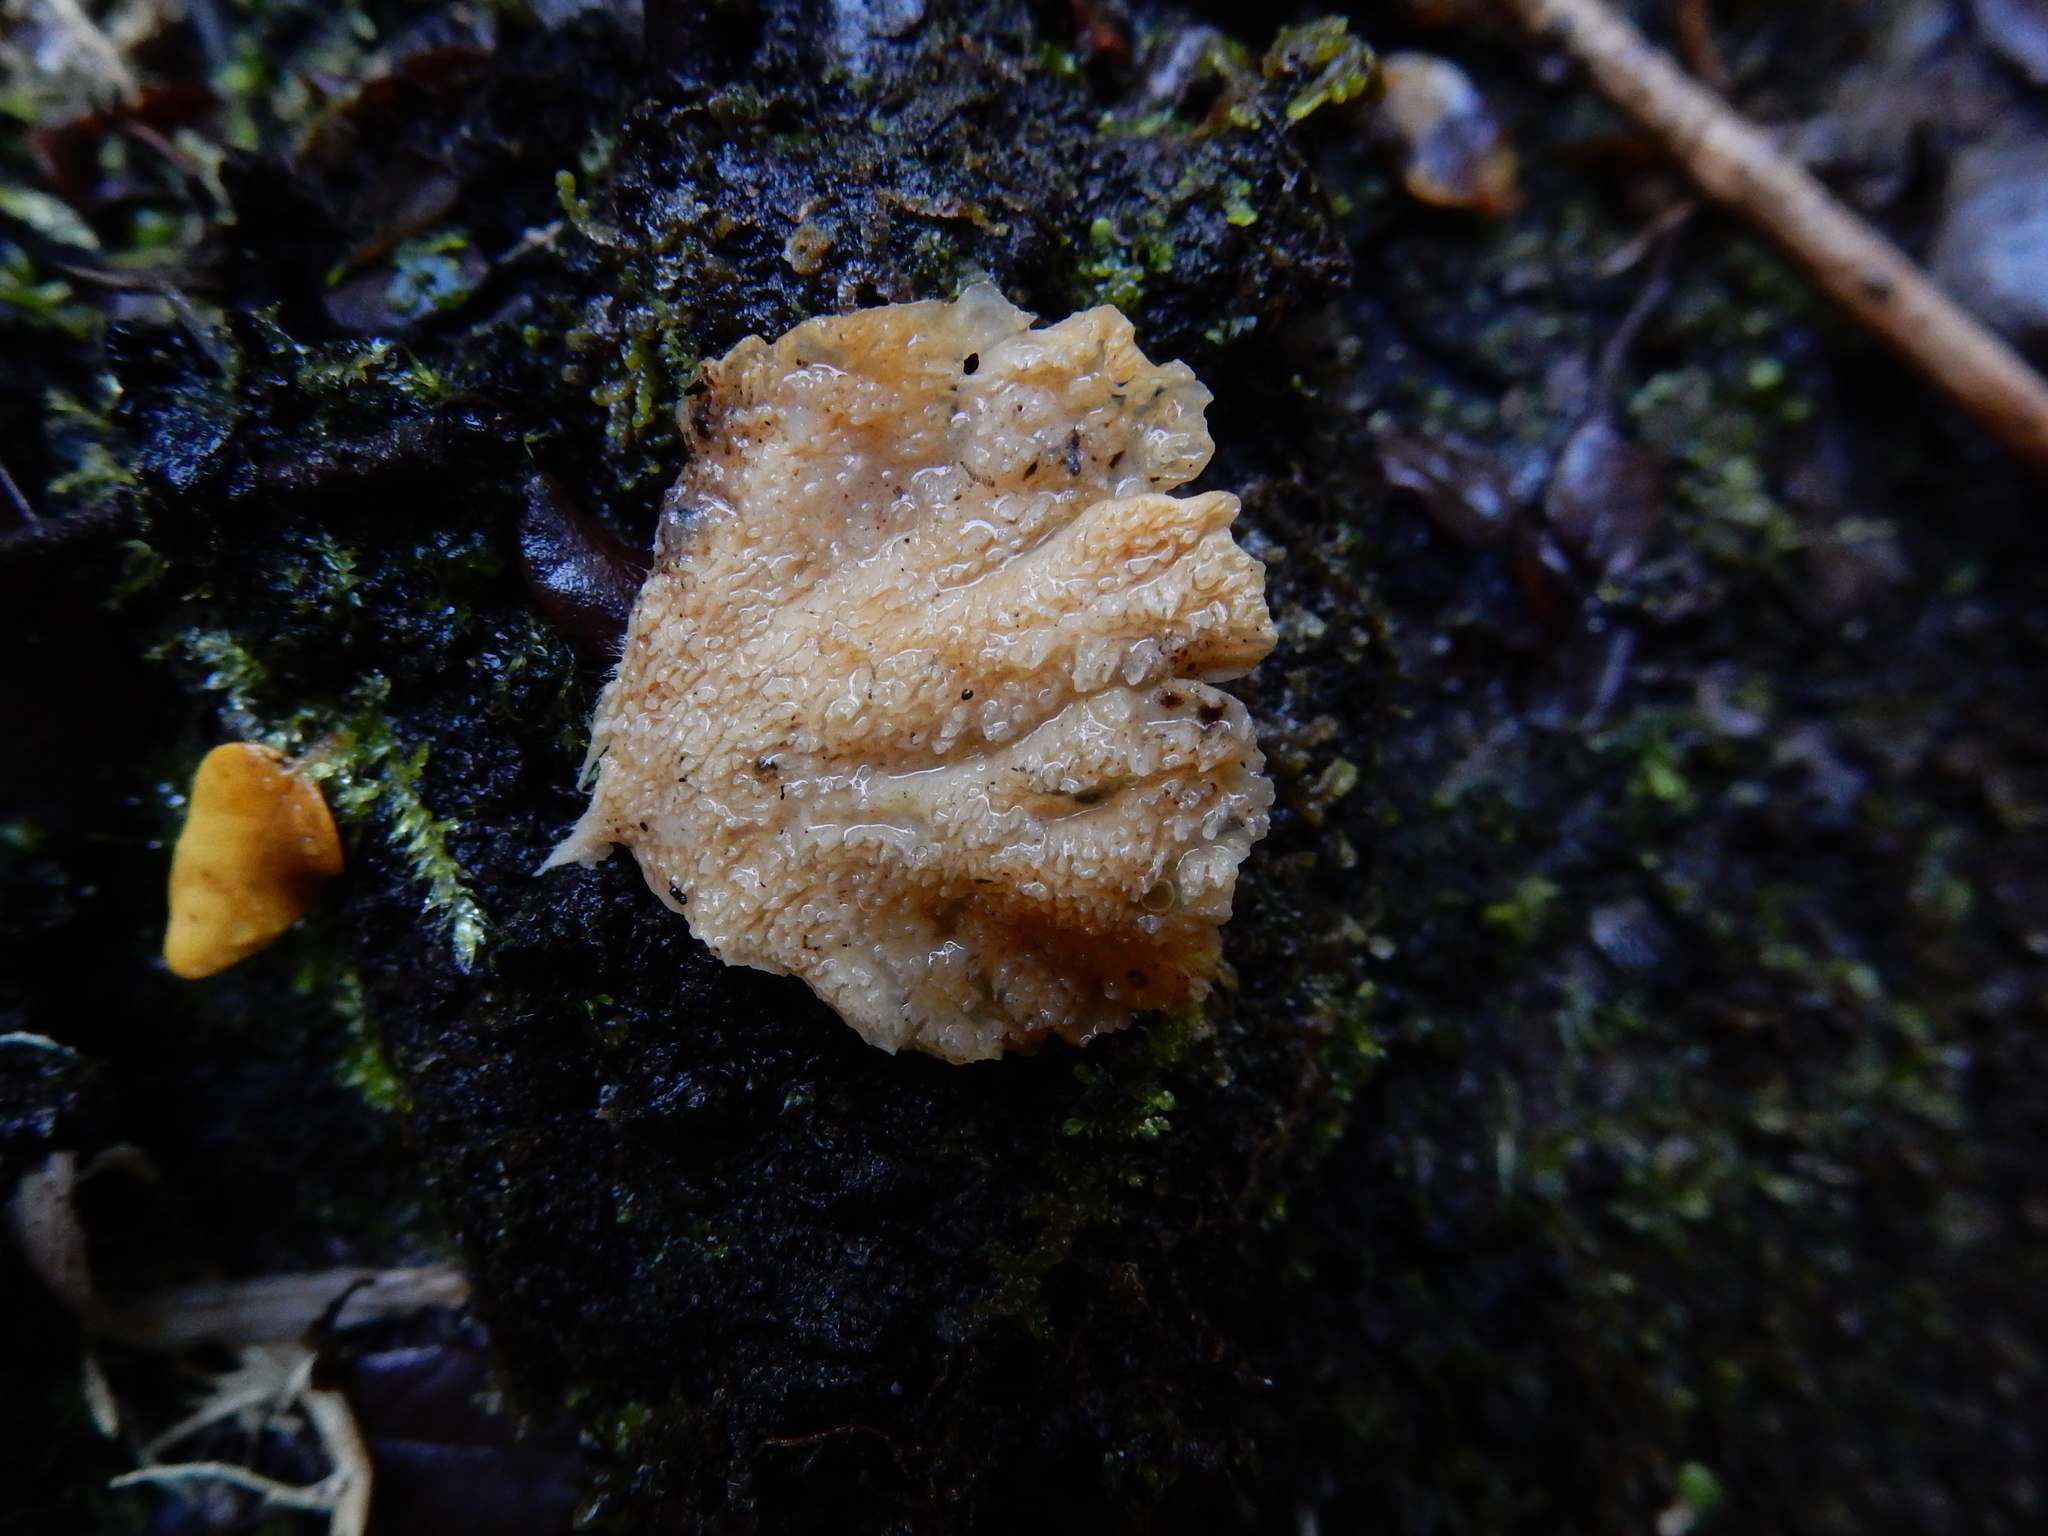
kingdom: Fungi
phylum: Basidiomycota
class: Agaricomycetes
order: Polyporales
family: Cerrenaceae
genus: Cerrena
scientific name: Cerrena zonata
